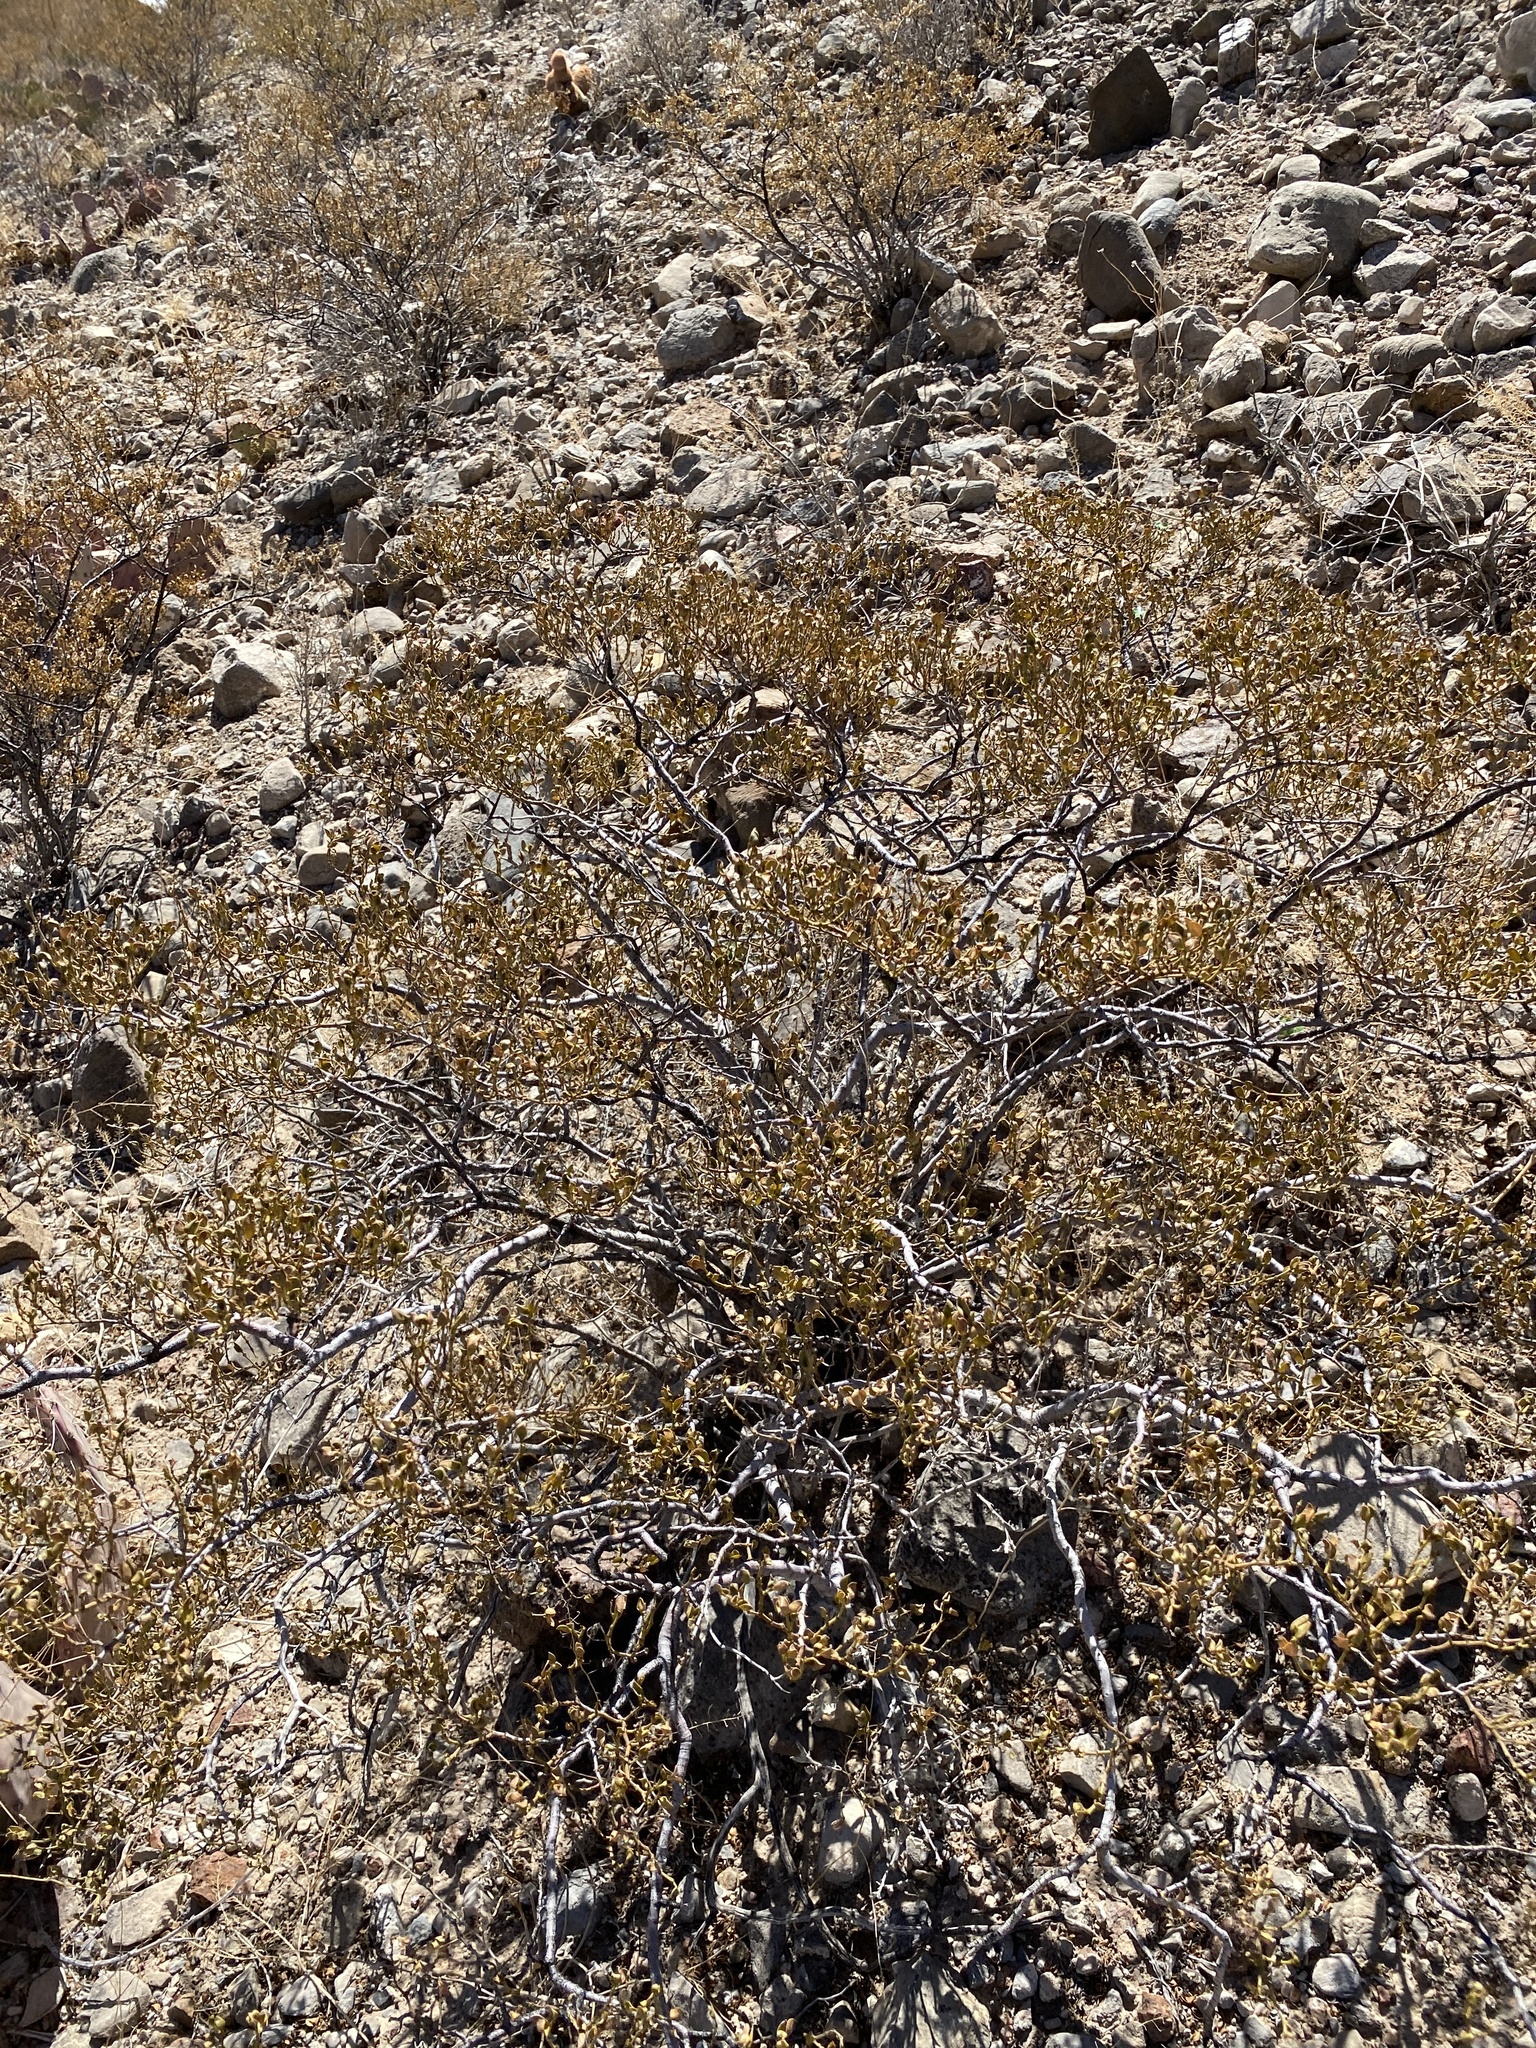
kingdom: Plantae
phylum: Tracheophyta
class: Magnoliopsida
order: Zygophyllales
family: Zygophyllaceae
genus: Larrea
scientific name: Larrea tridentata
